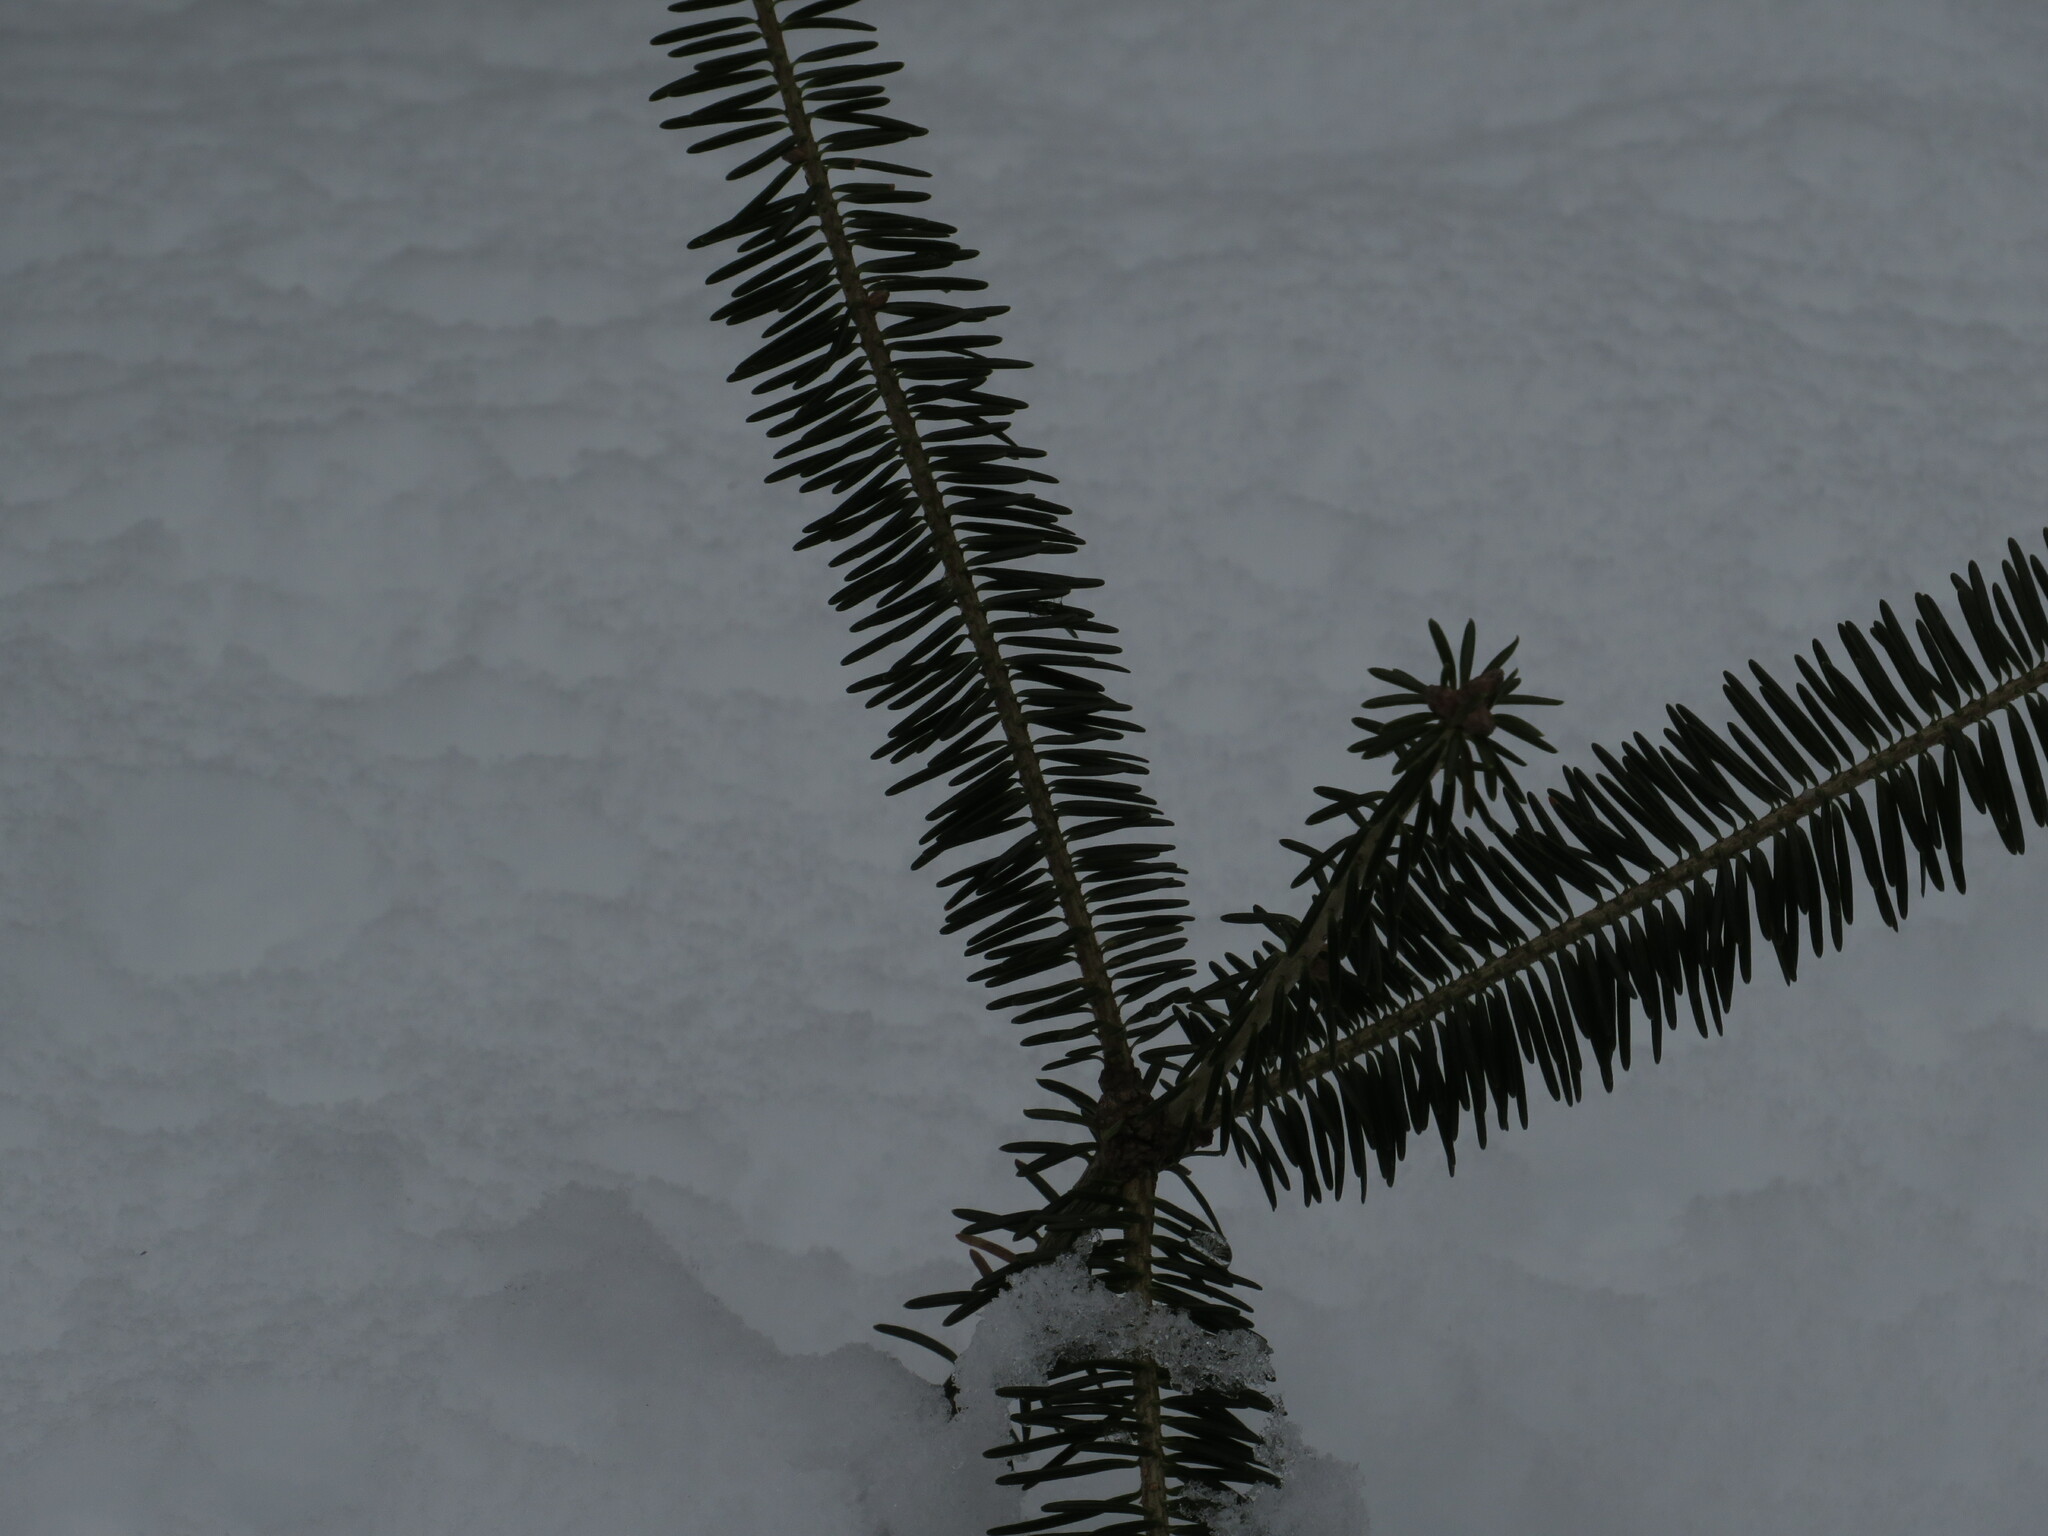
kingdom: Plantae
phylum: Tracheophyta
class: Pinopsida
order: Pinales
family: Pinaceae
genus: Abies
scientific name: Abies balsamea
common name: Balsam fir
